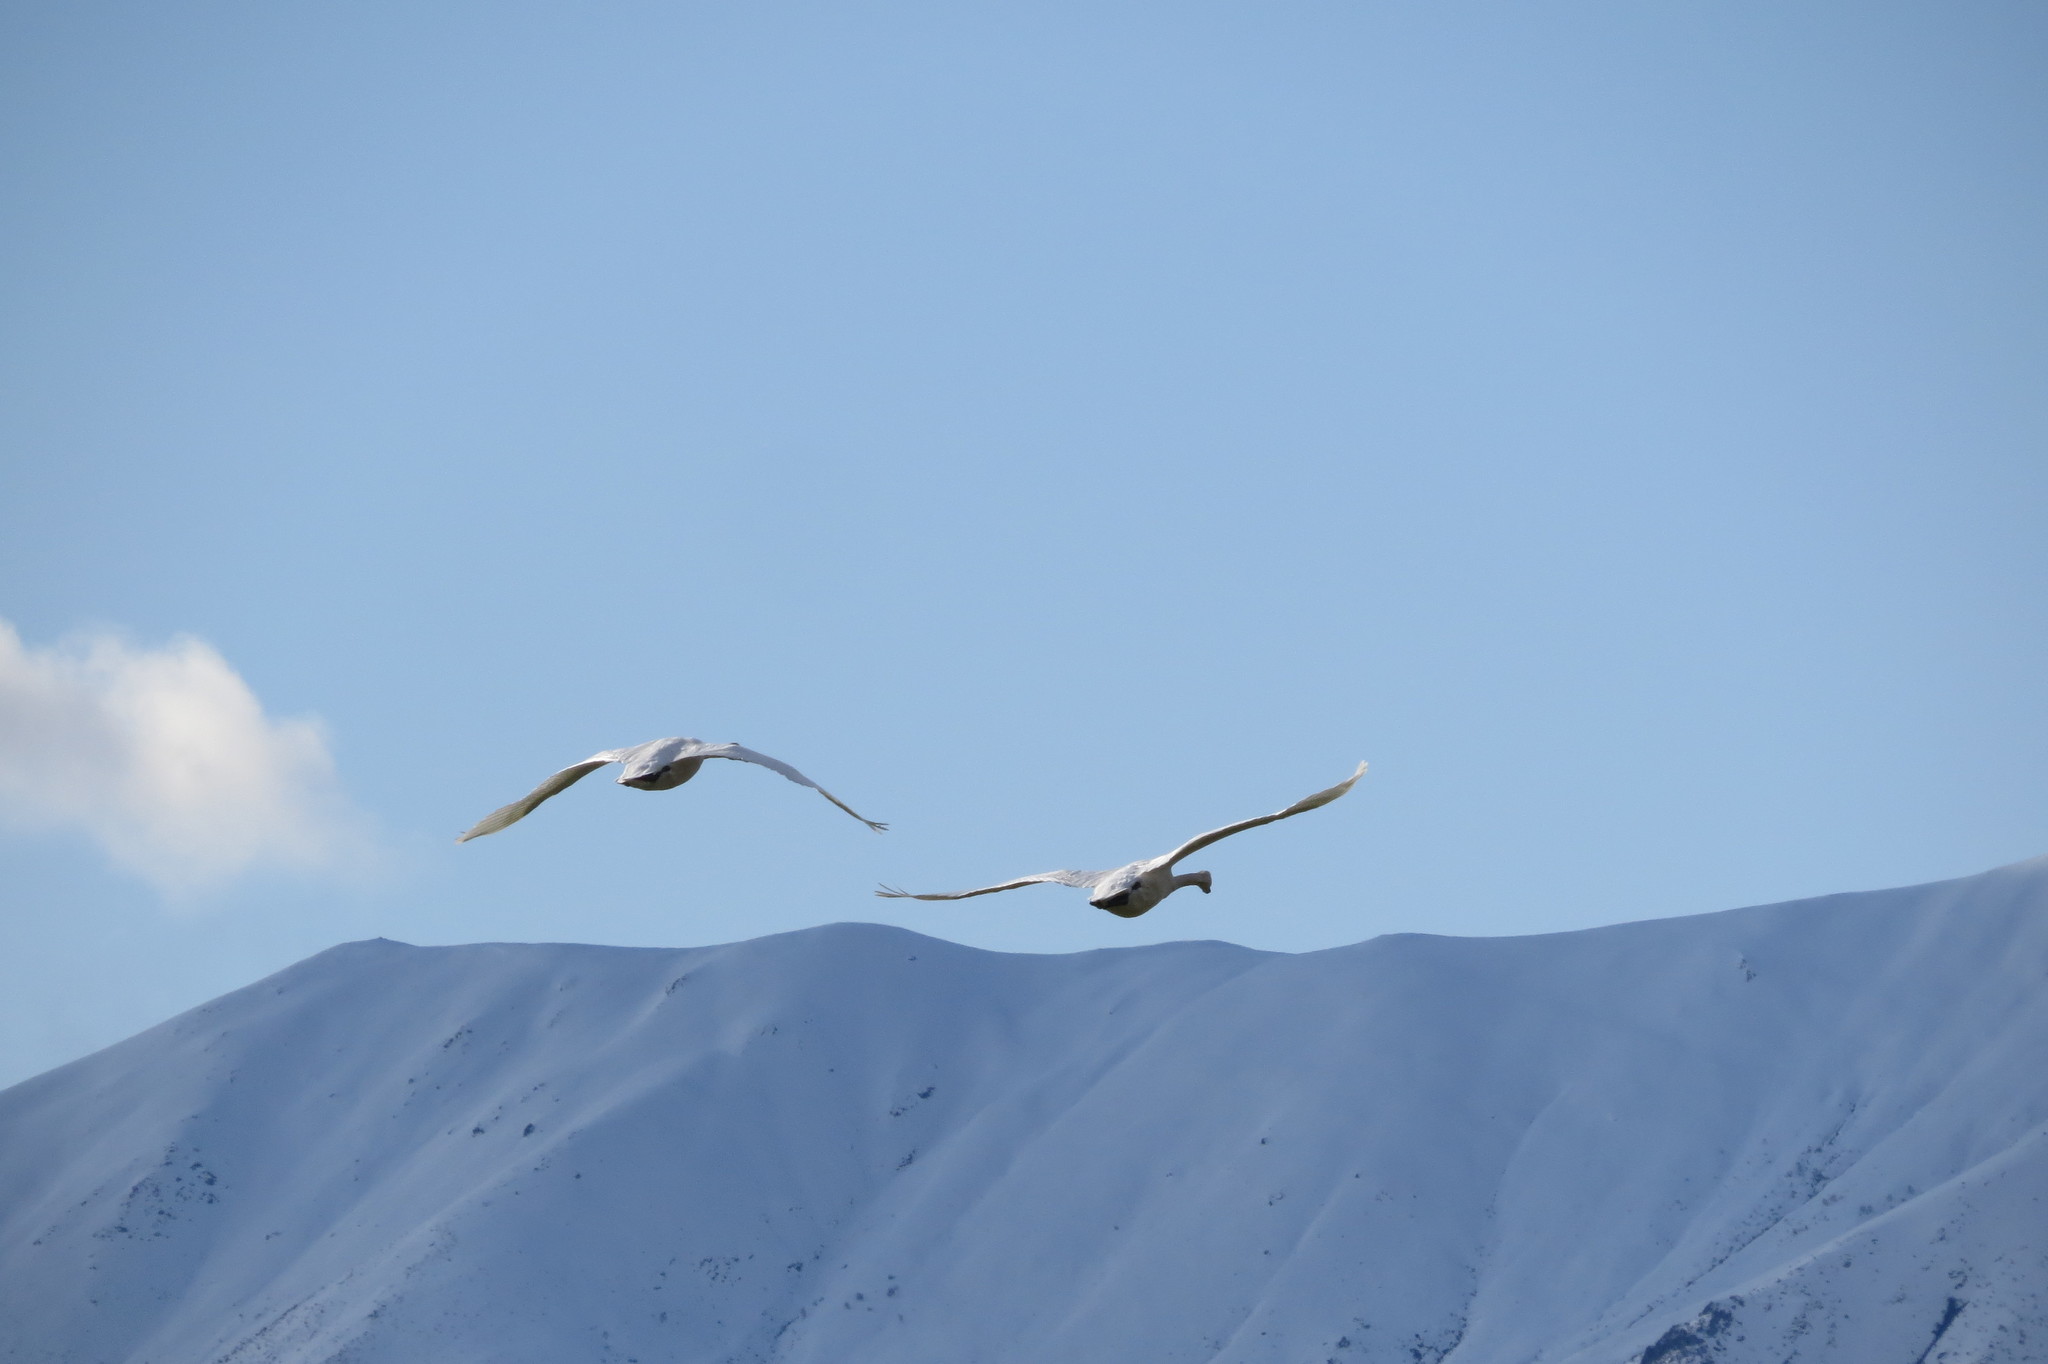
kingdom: Animalia
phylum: Chordata
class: Aves
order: Anseriformes
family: Anatidae
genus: Cygnus
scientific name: Cygnus olor
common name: Mute swan
